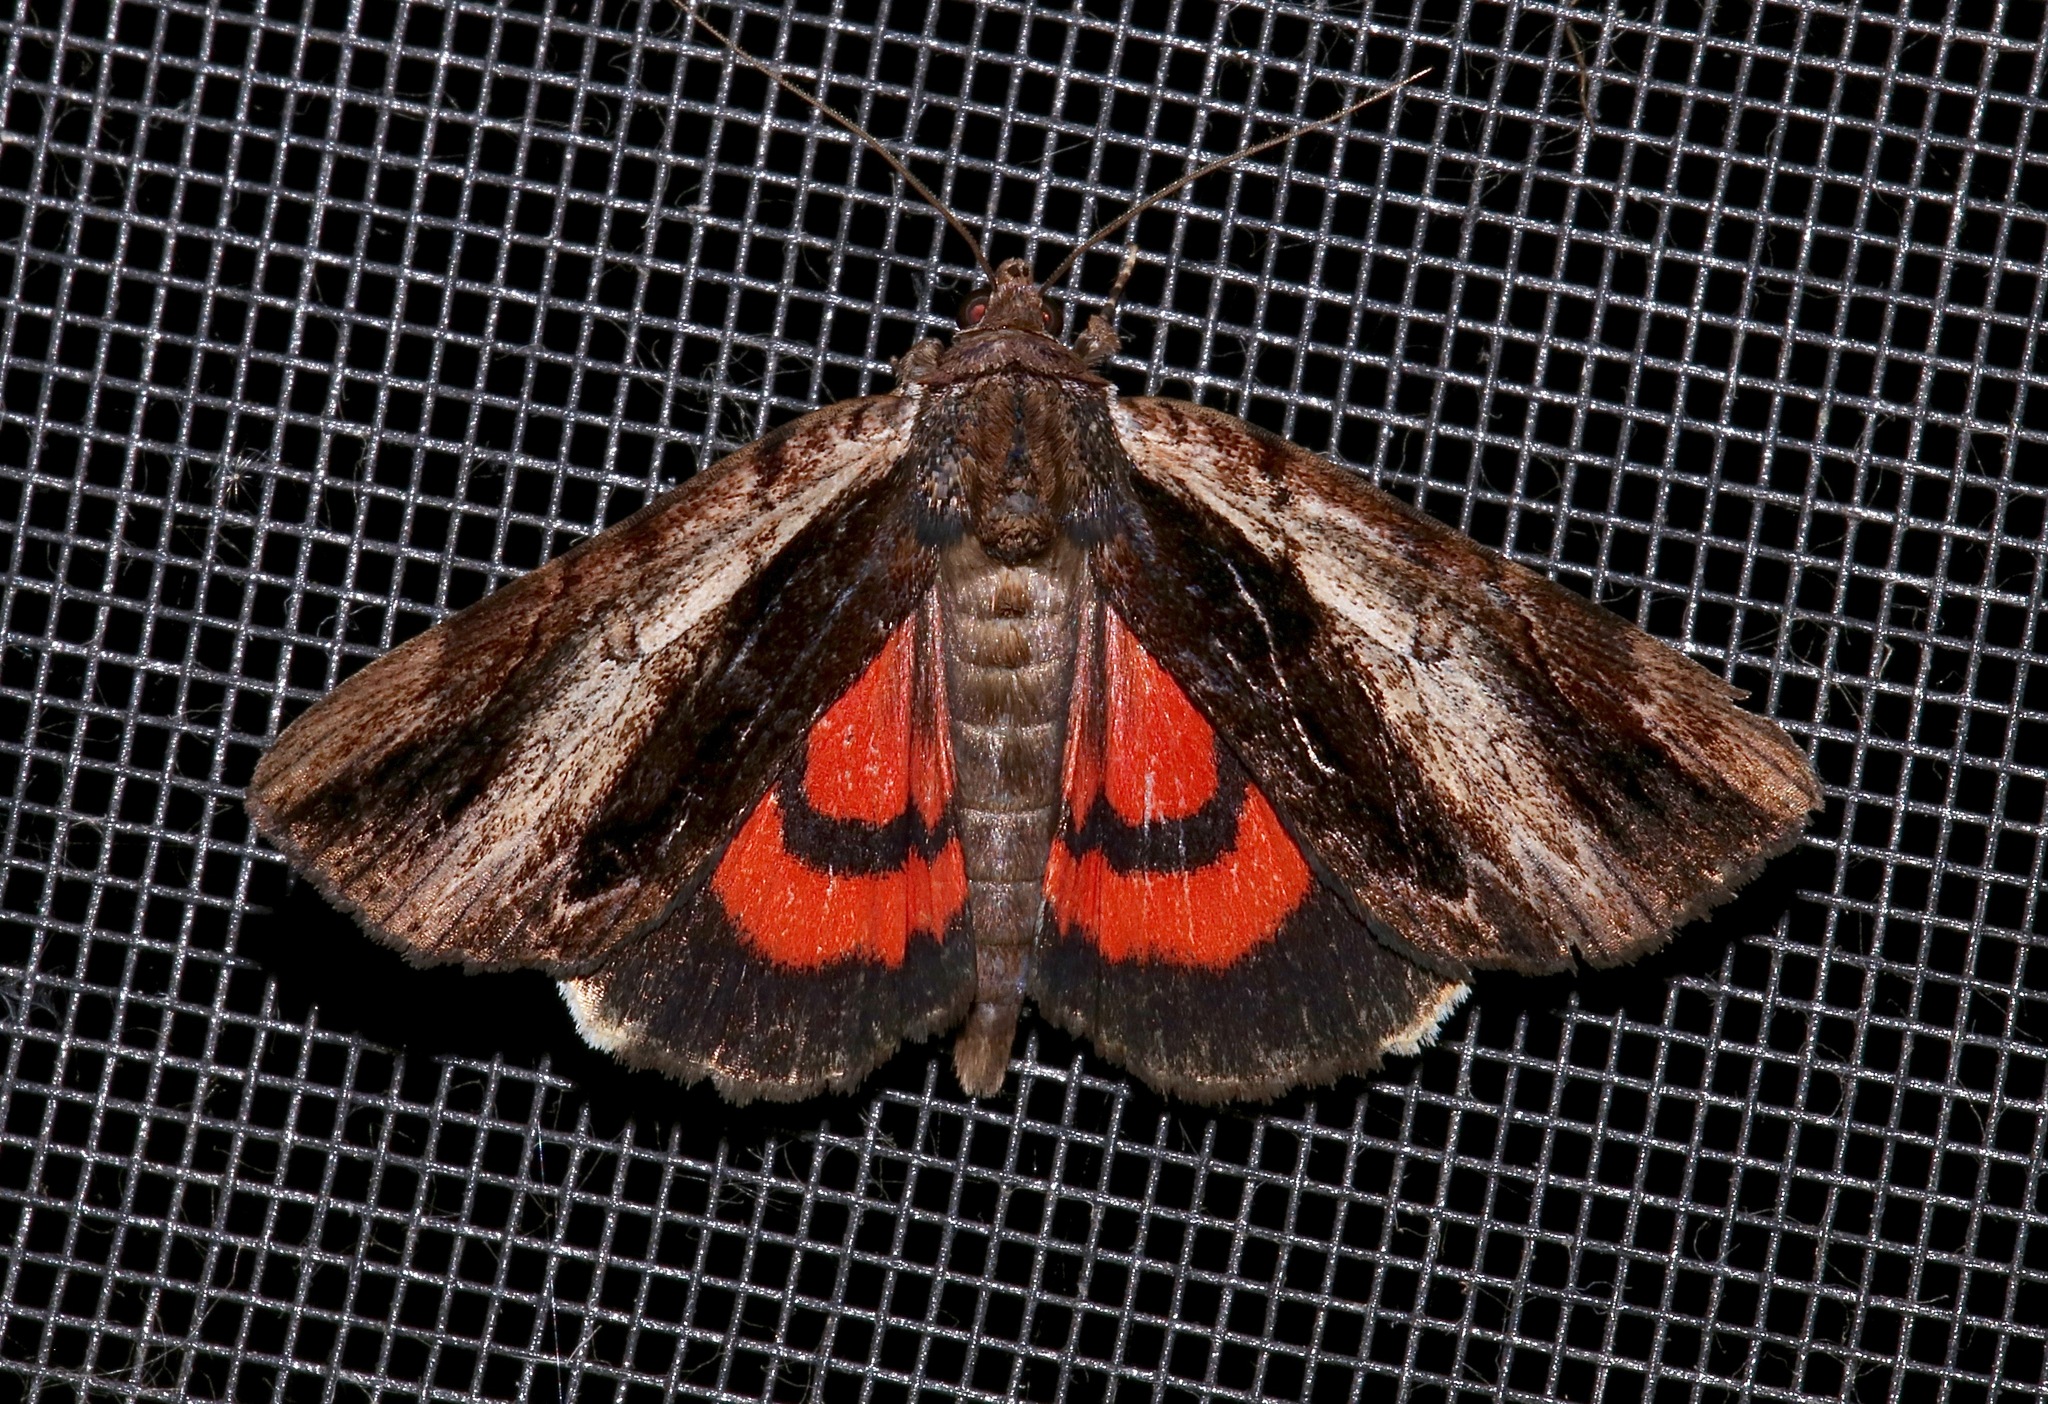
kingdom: Animalia
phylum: Arthropoda
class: Insecta
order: Lepidoptera
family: Erebidae
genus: Catocala
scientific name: Catocala ultronia
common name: Ultronia underwing
